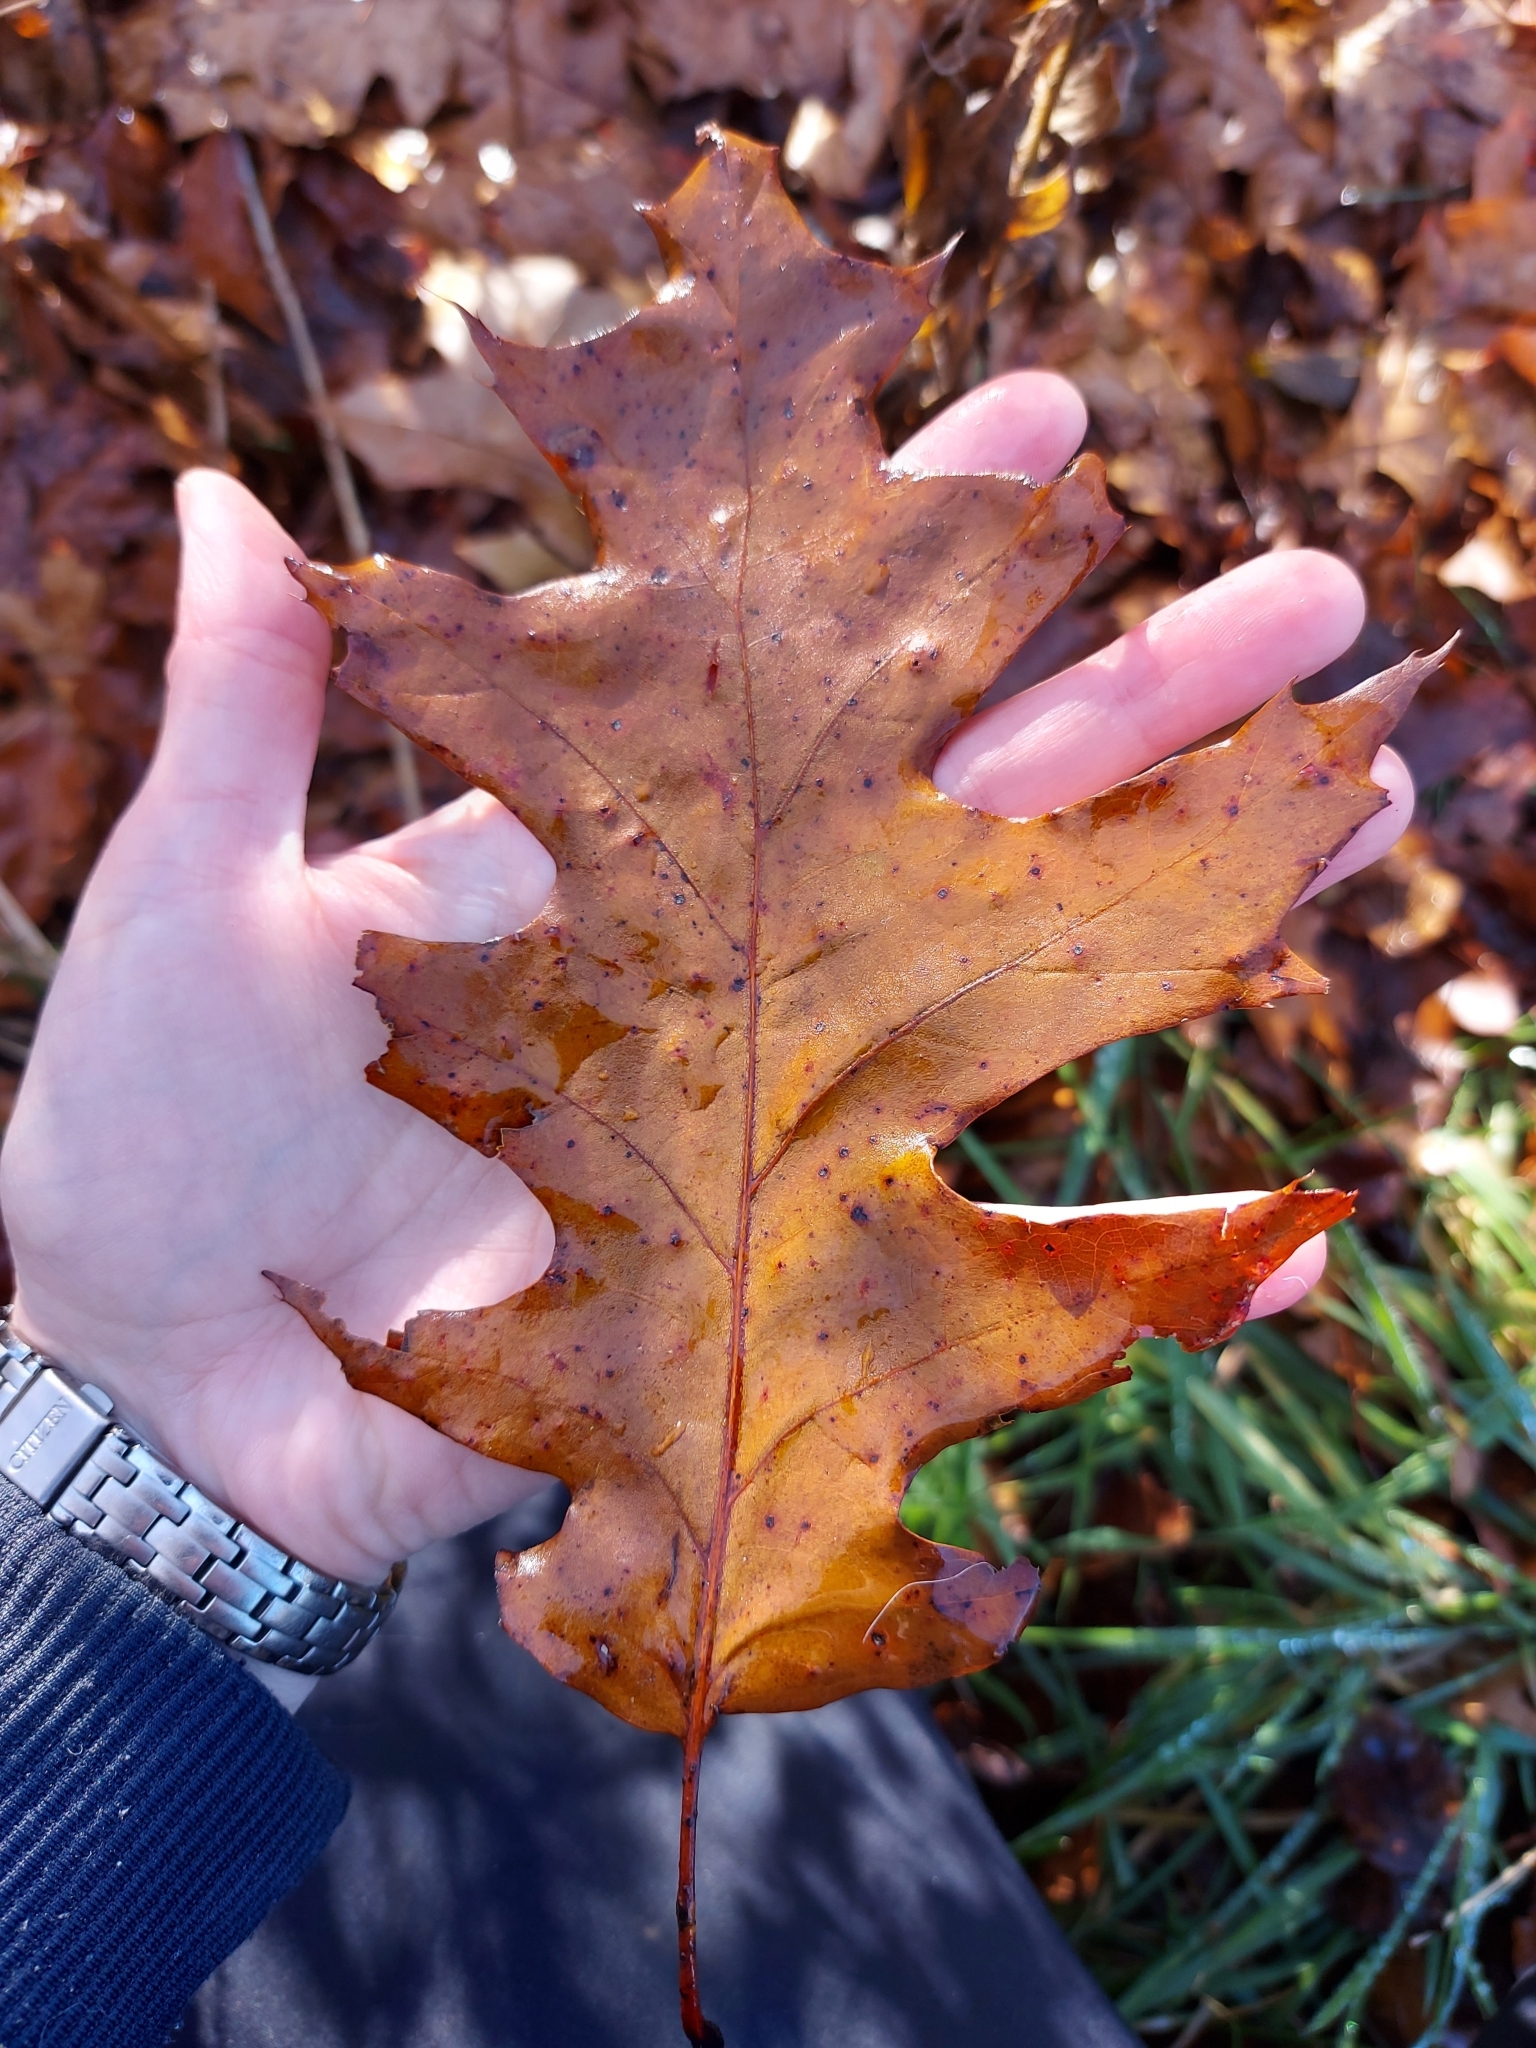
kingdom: Plantae
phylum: Tracheophyta
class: Magnoliopsida
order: Fagales
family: Fagaceae
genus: Quercus
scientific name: Quercus rubra
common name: Red oak
